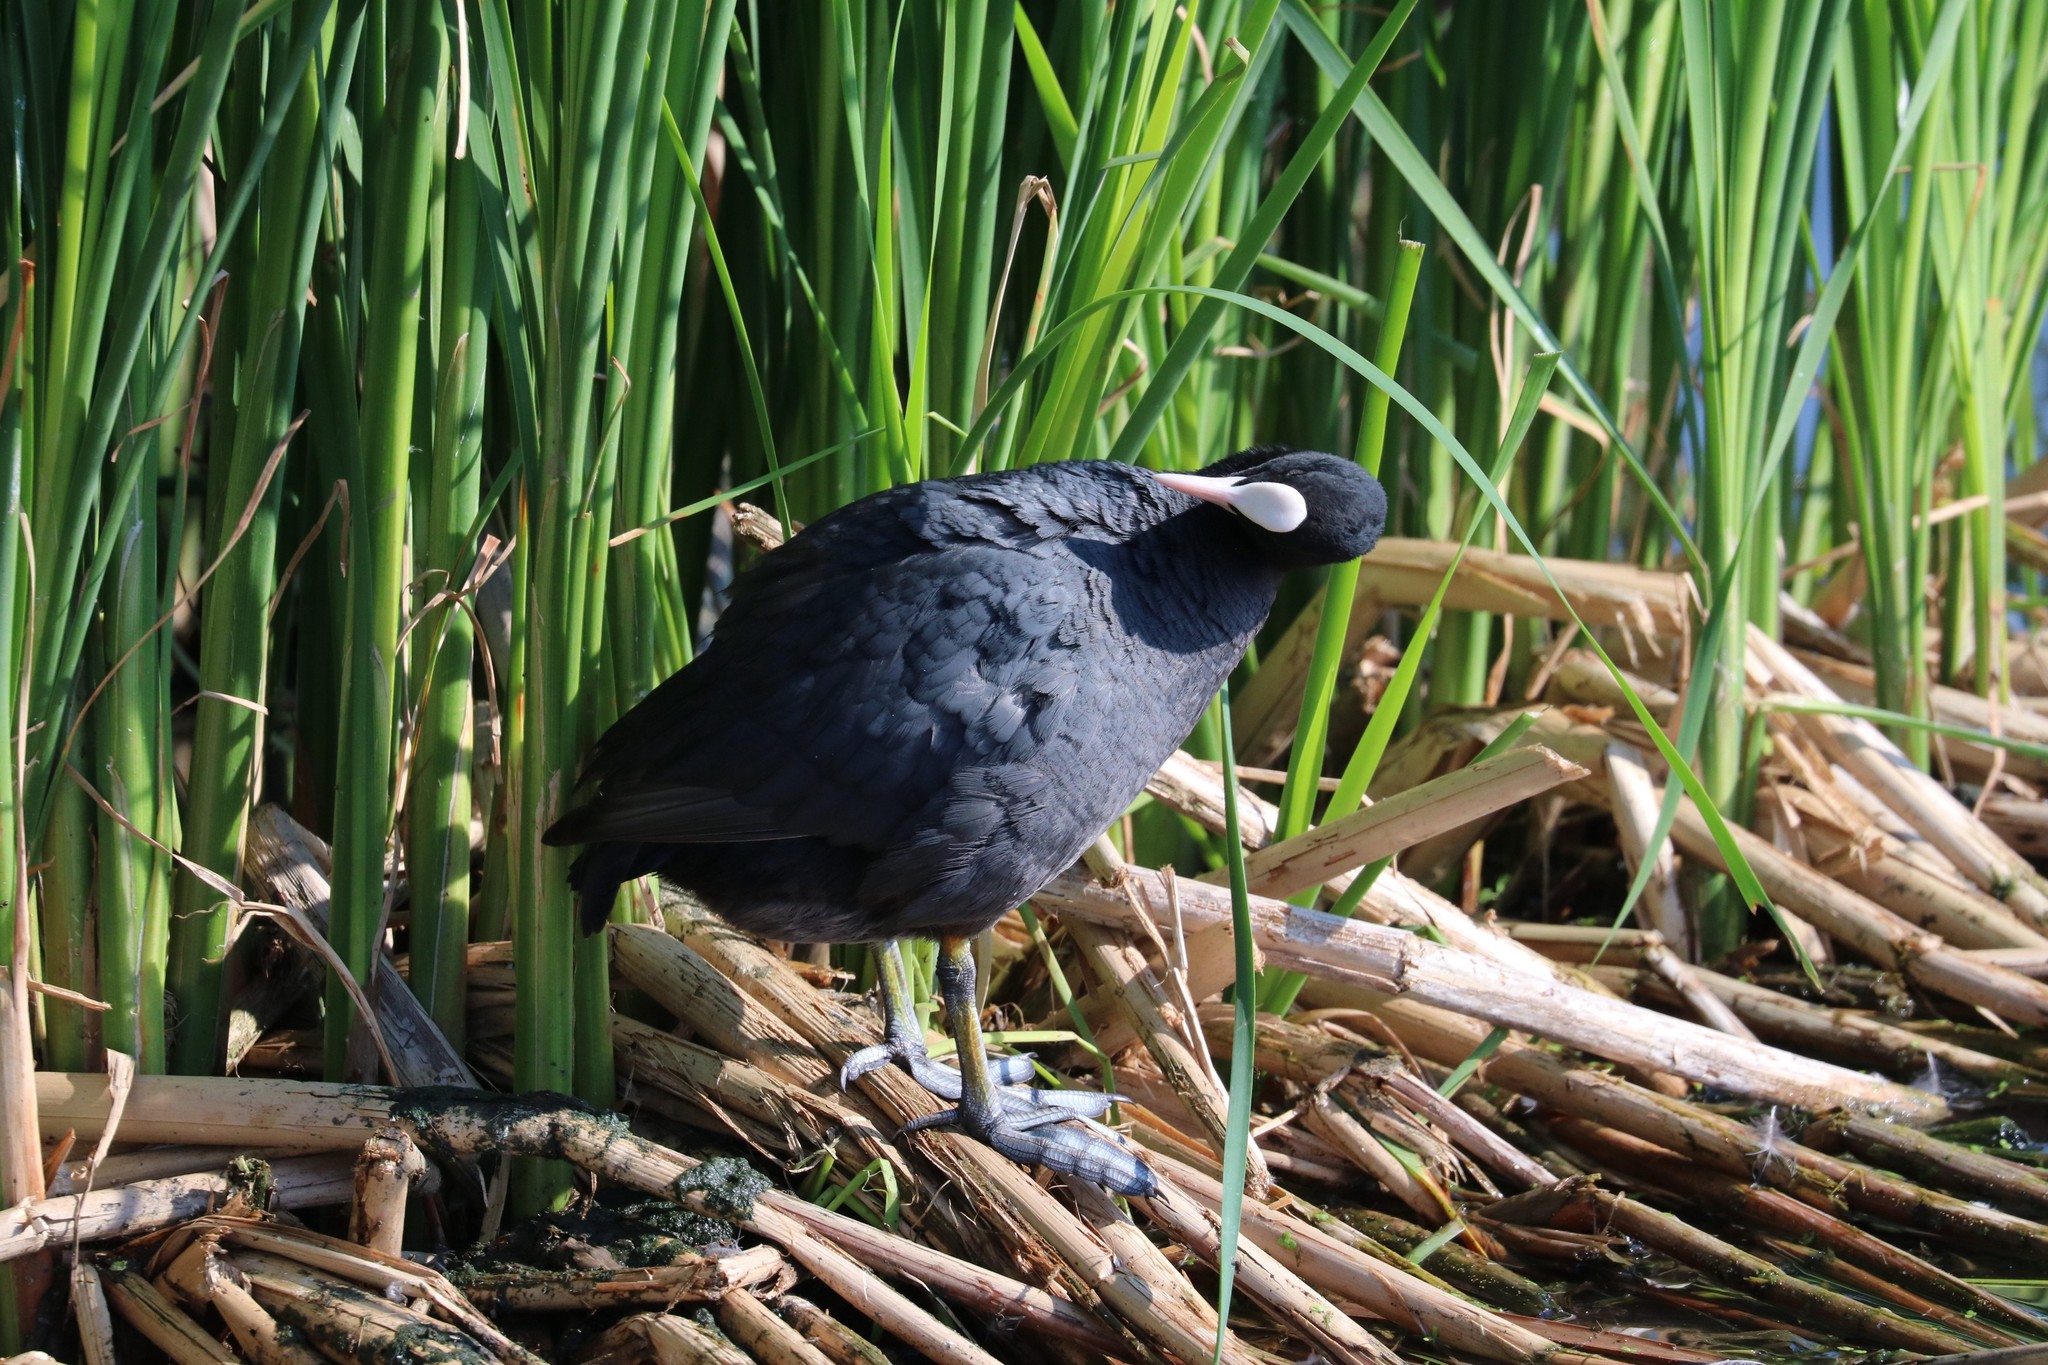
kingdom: Animalia
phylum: Chordata
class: Aves
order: Gruiformes
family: Rallidae
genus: Fulica
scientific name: Fulica atra
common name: Eurasian coot
